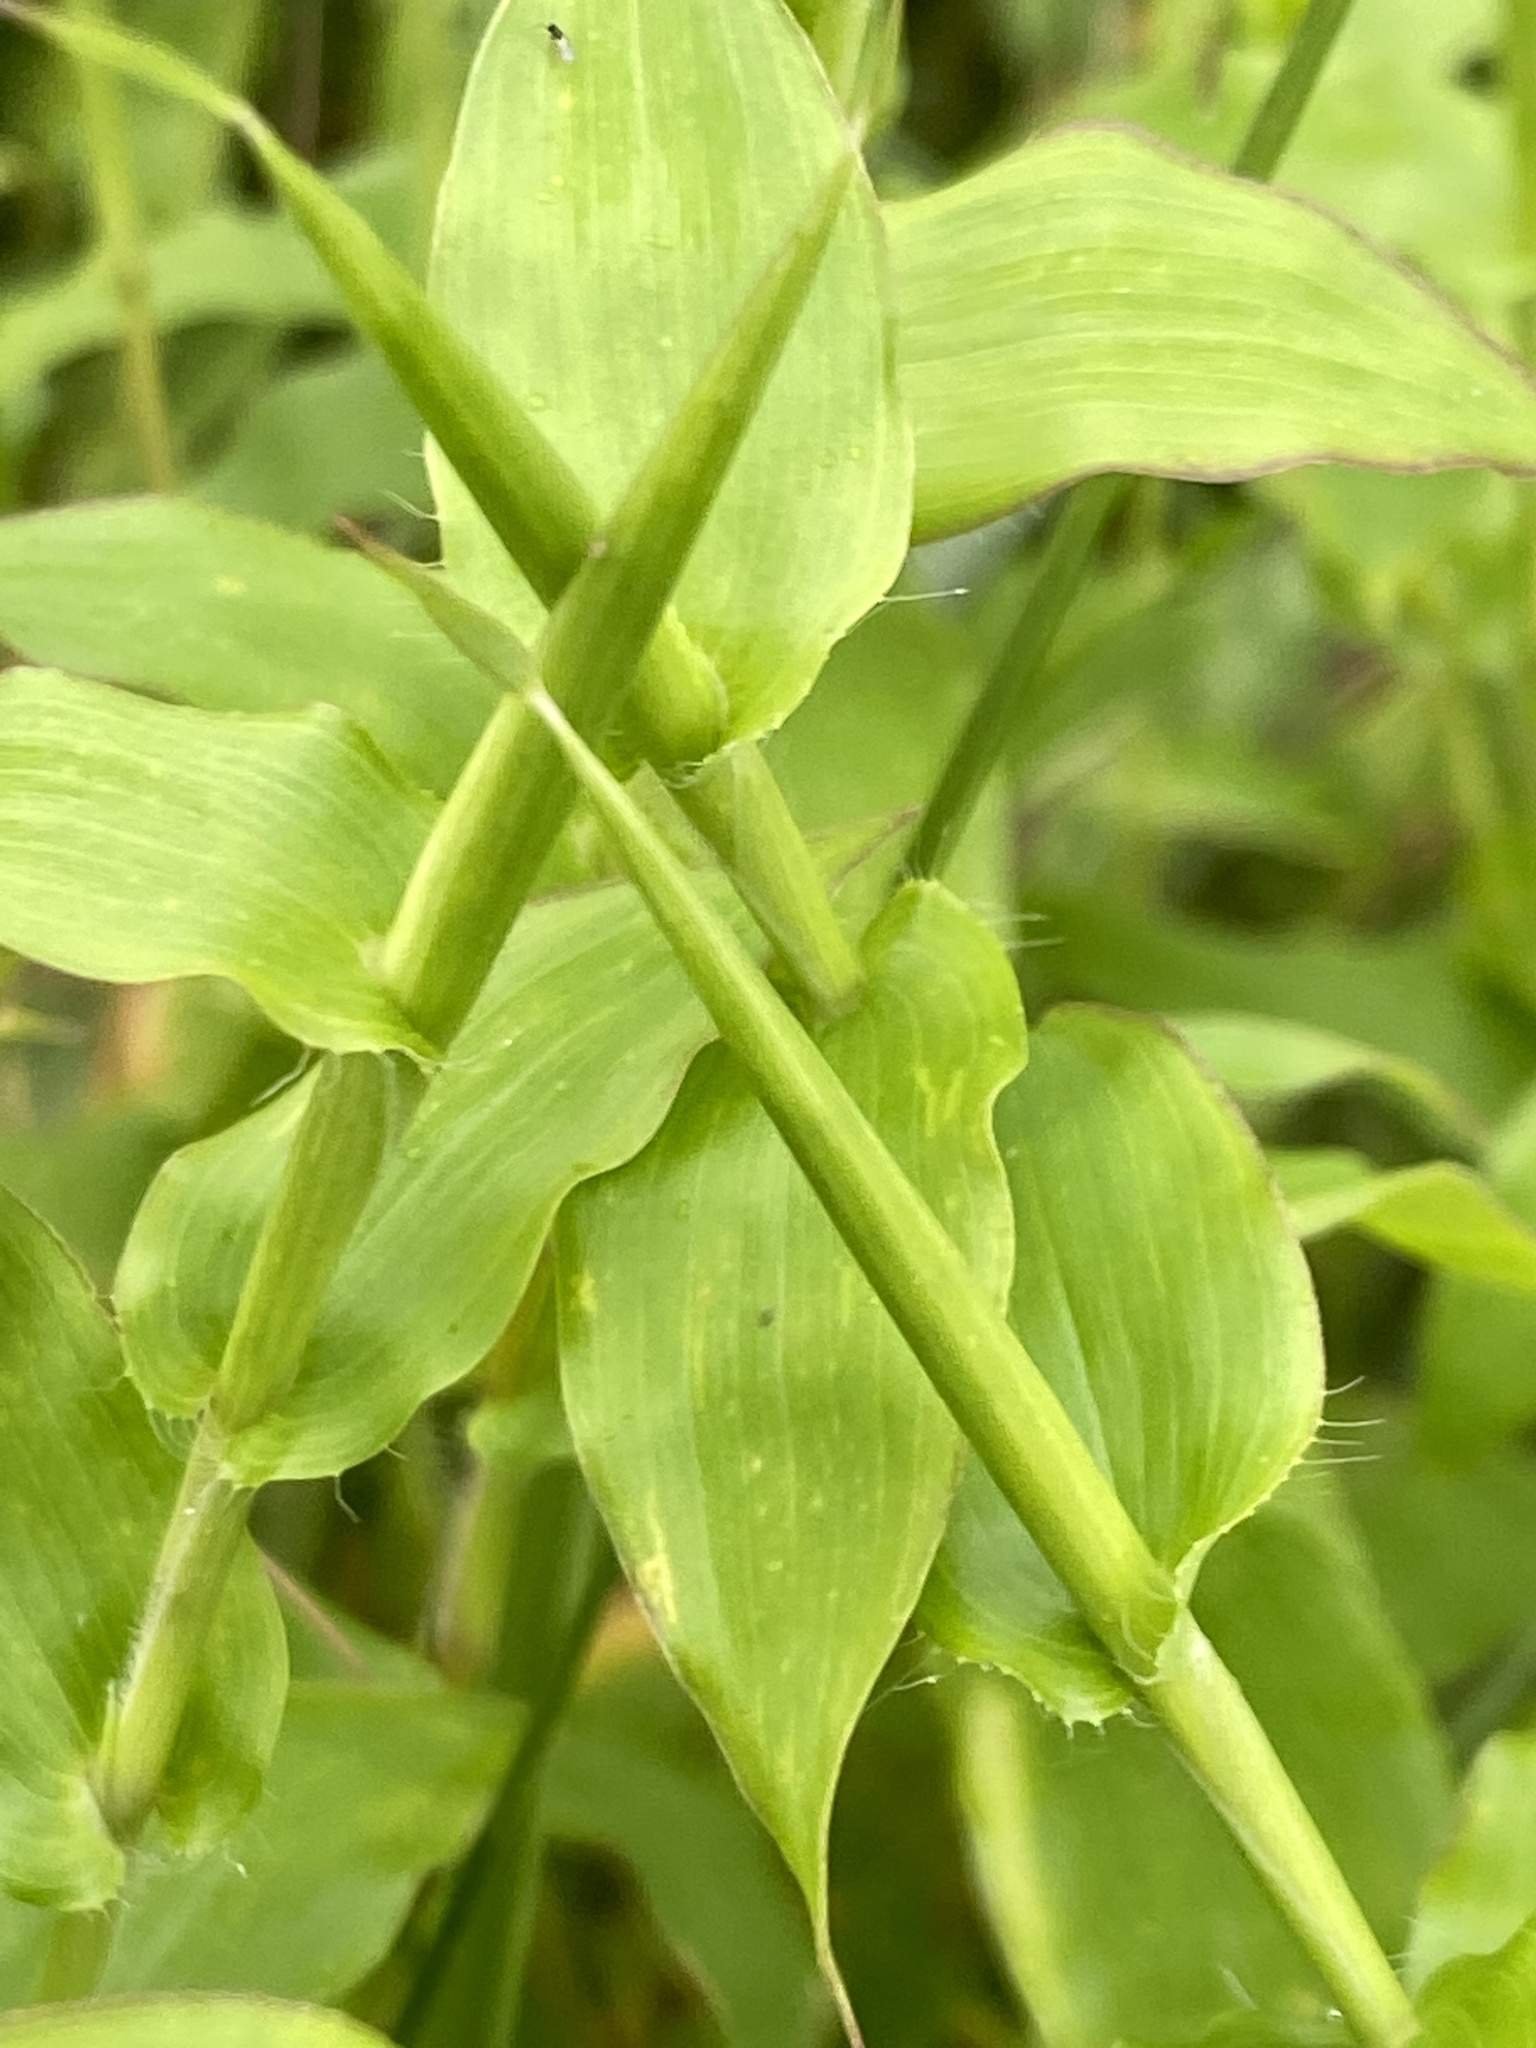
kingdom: Plantae
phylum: Tracheophyta
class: Liliopsida
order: Poales
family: Poaceae
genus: Arthraxon
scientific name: Arthraxon hispidus
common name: Small carpgrass
